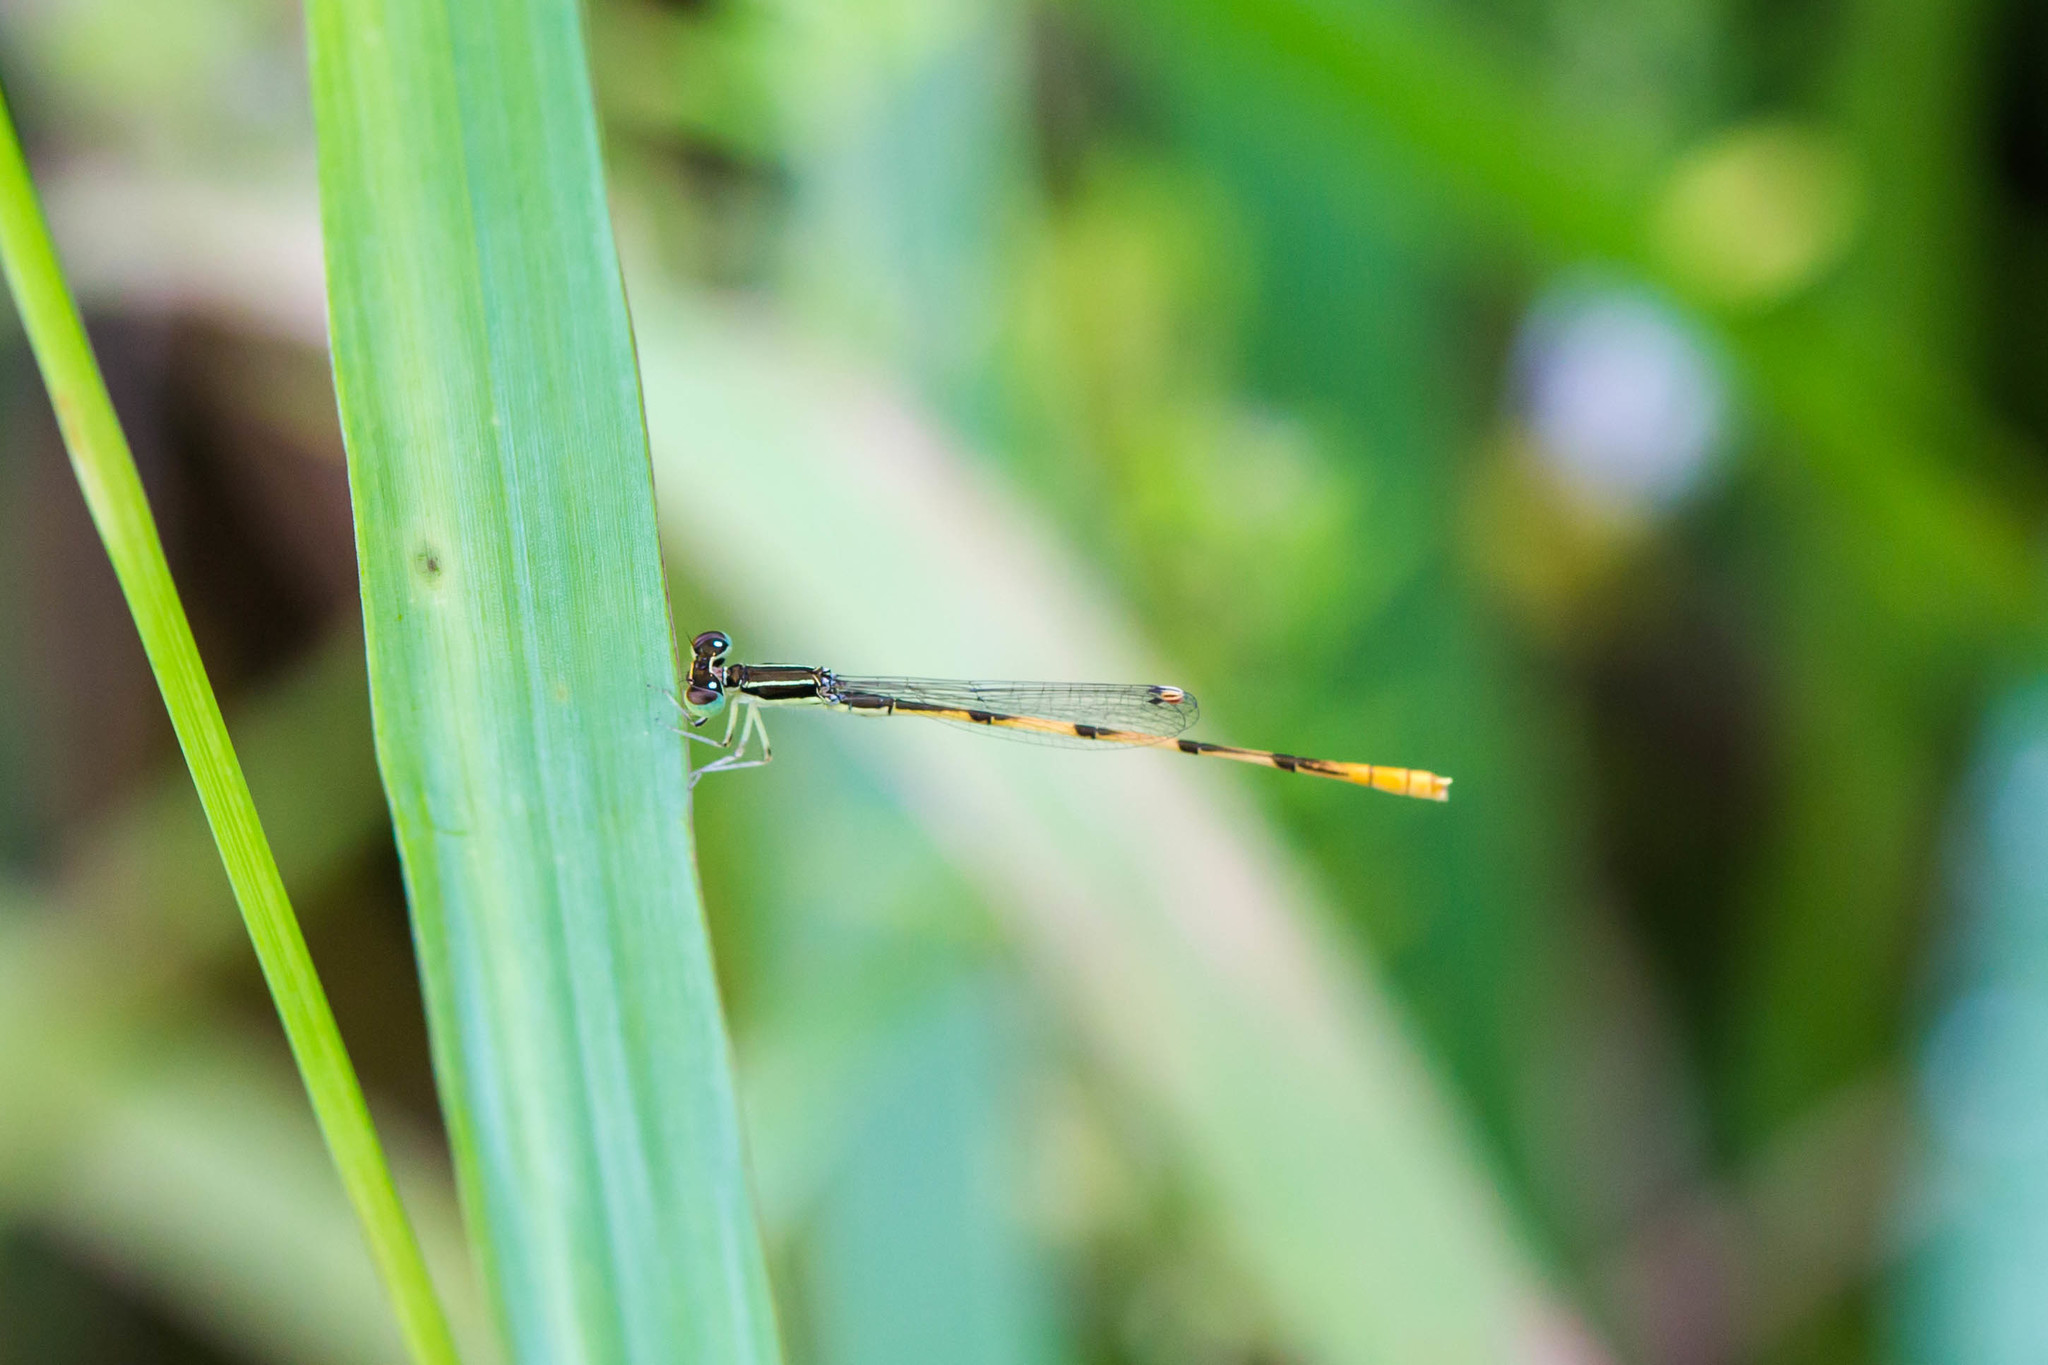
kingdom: Animalia
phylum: Arthropoda
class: Insecta
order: Odonata
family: Coenagrionidae
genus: Ischnura
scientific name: Ischnura hastata
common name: Citrine forktail
